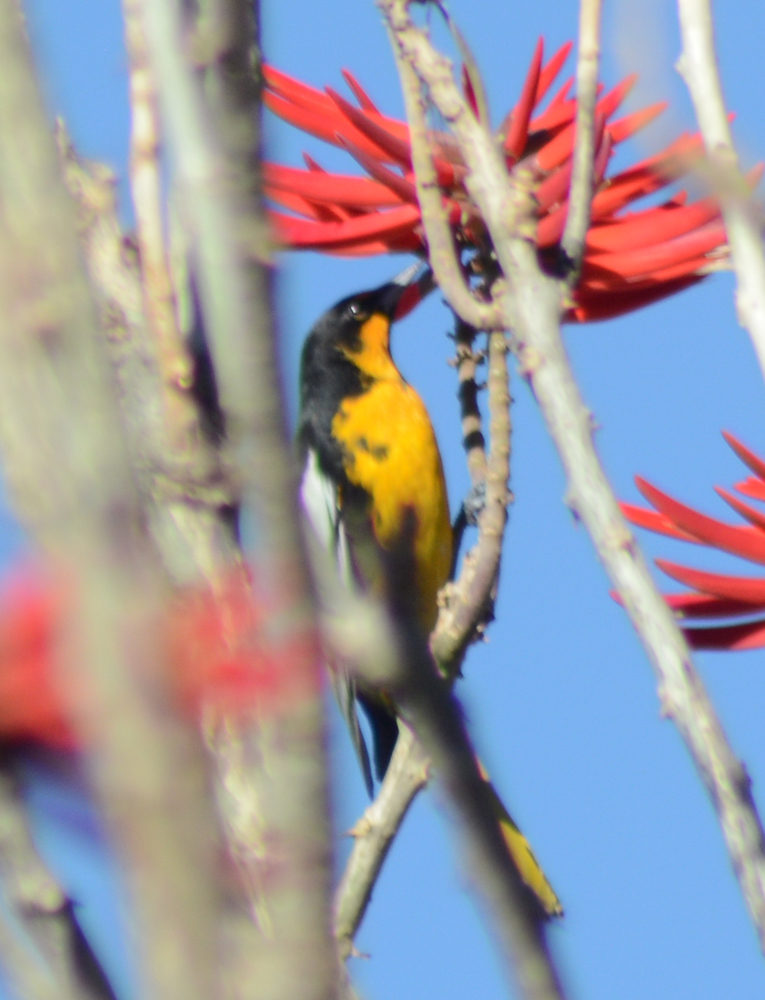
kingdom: Animalia
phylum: Chordata
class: Aves
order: Passeriformes
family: Icteridae
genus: Icterus
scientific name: Icterus abeillei
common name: Black-backed oriole
